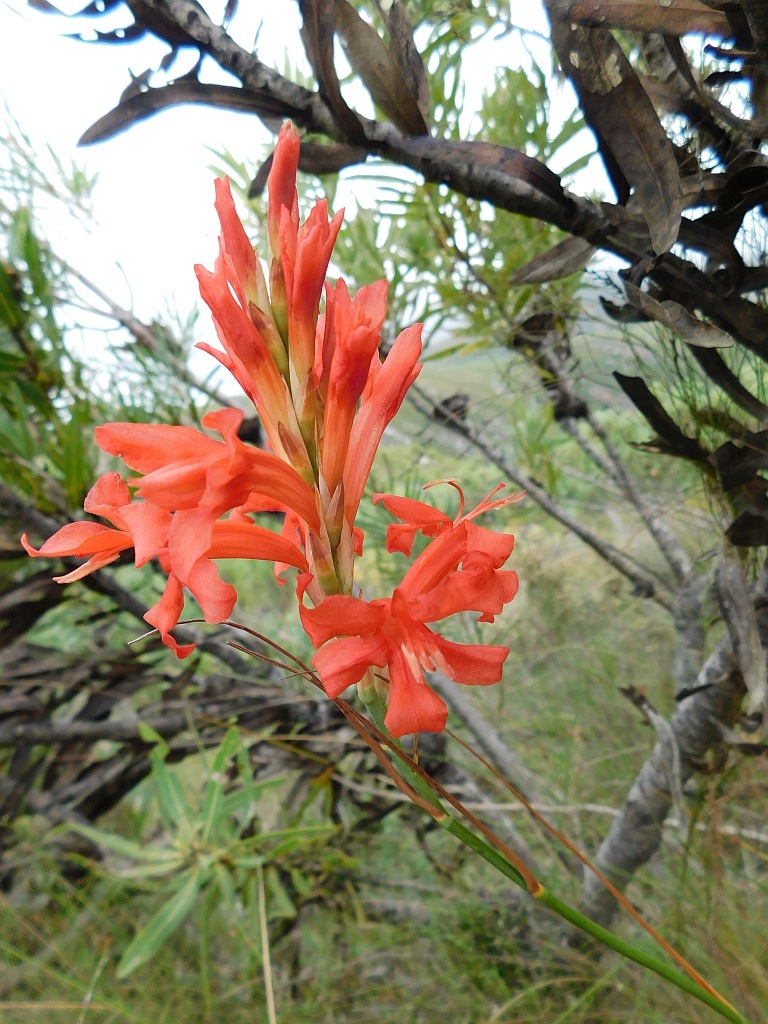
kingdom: Plantae
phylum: Tracheophyta
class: Liliopsida
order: Asparagales
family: Iridaceae
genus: Tritoniopsis
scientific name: Tritoniopsis triticea
